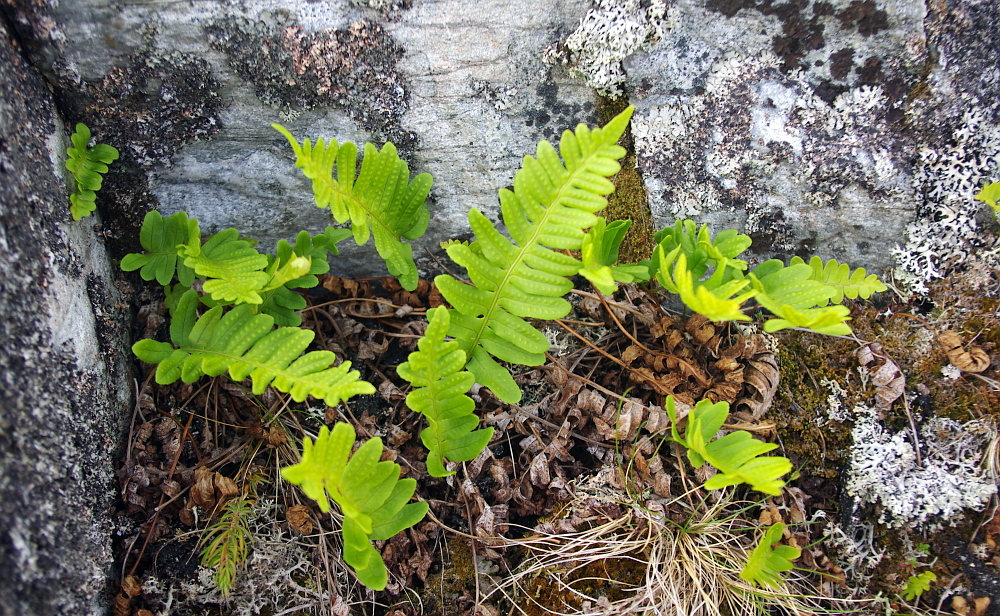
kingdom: Plantae
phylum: Tracheophyta
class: Polypodiopsida
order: Polypodiales
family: Polypodiaceae
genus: Polypodium
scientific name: Polypodium vulgare
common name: Common polypody
